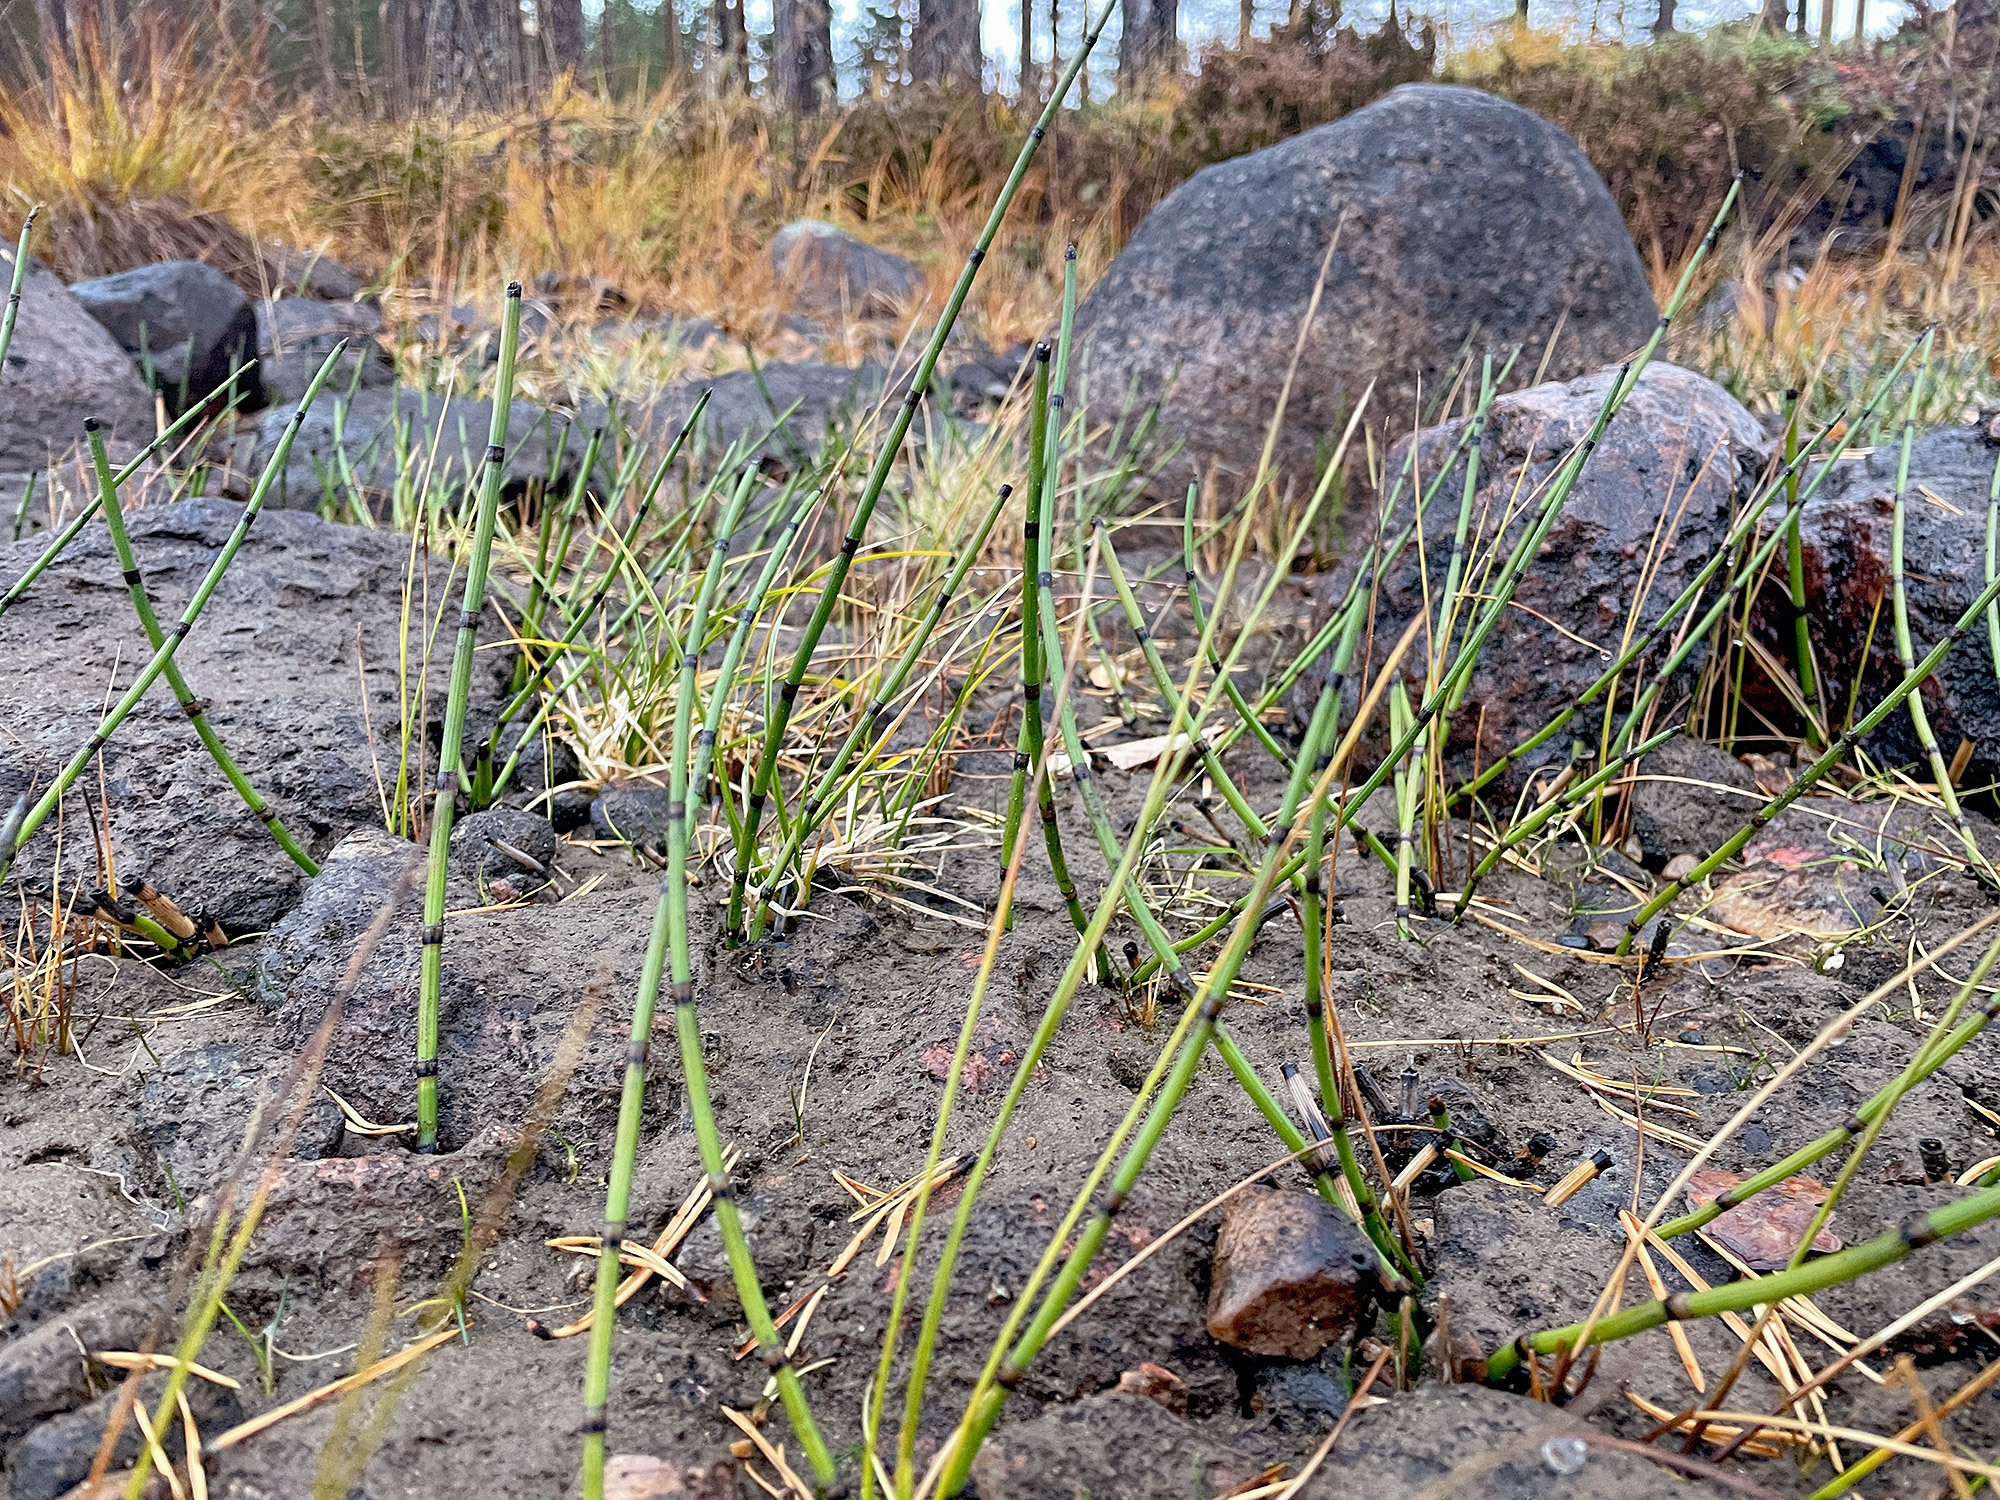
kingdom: Plantae
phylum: Tracheophyta
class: Polypodiopsida
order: Equisetales
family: Equisetaceae
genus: Equisetum
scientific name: Equisetum hyemale
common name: Rough horsetail
